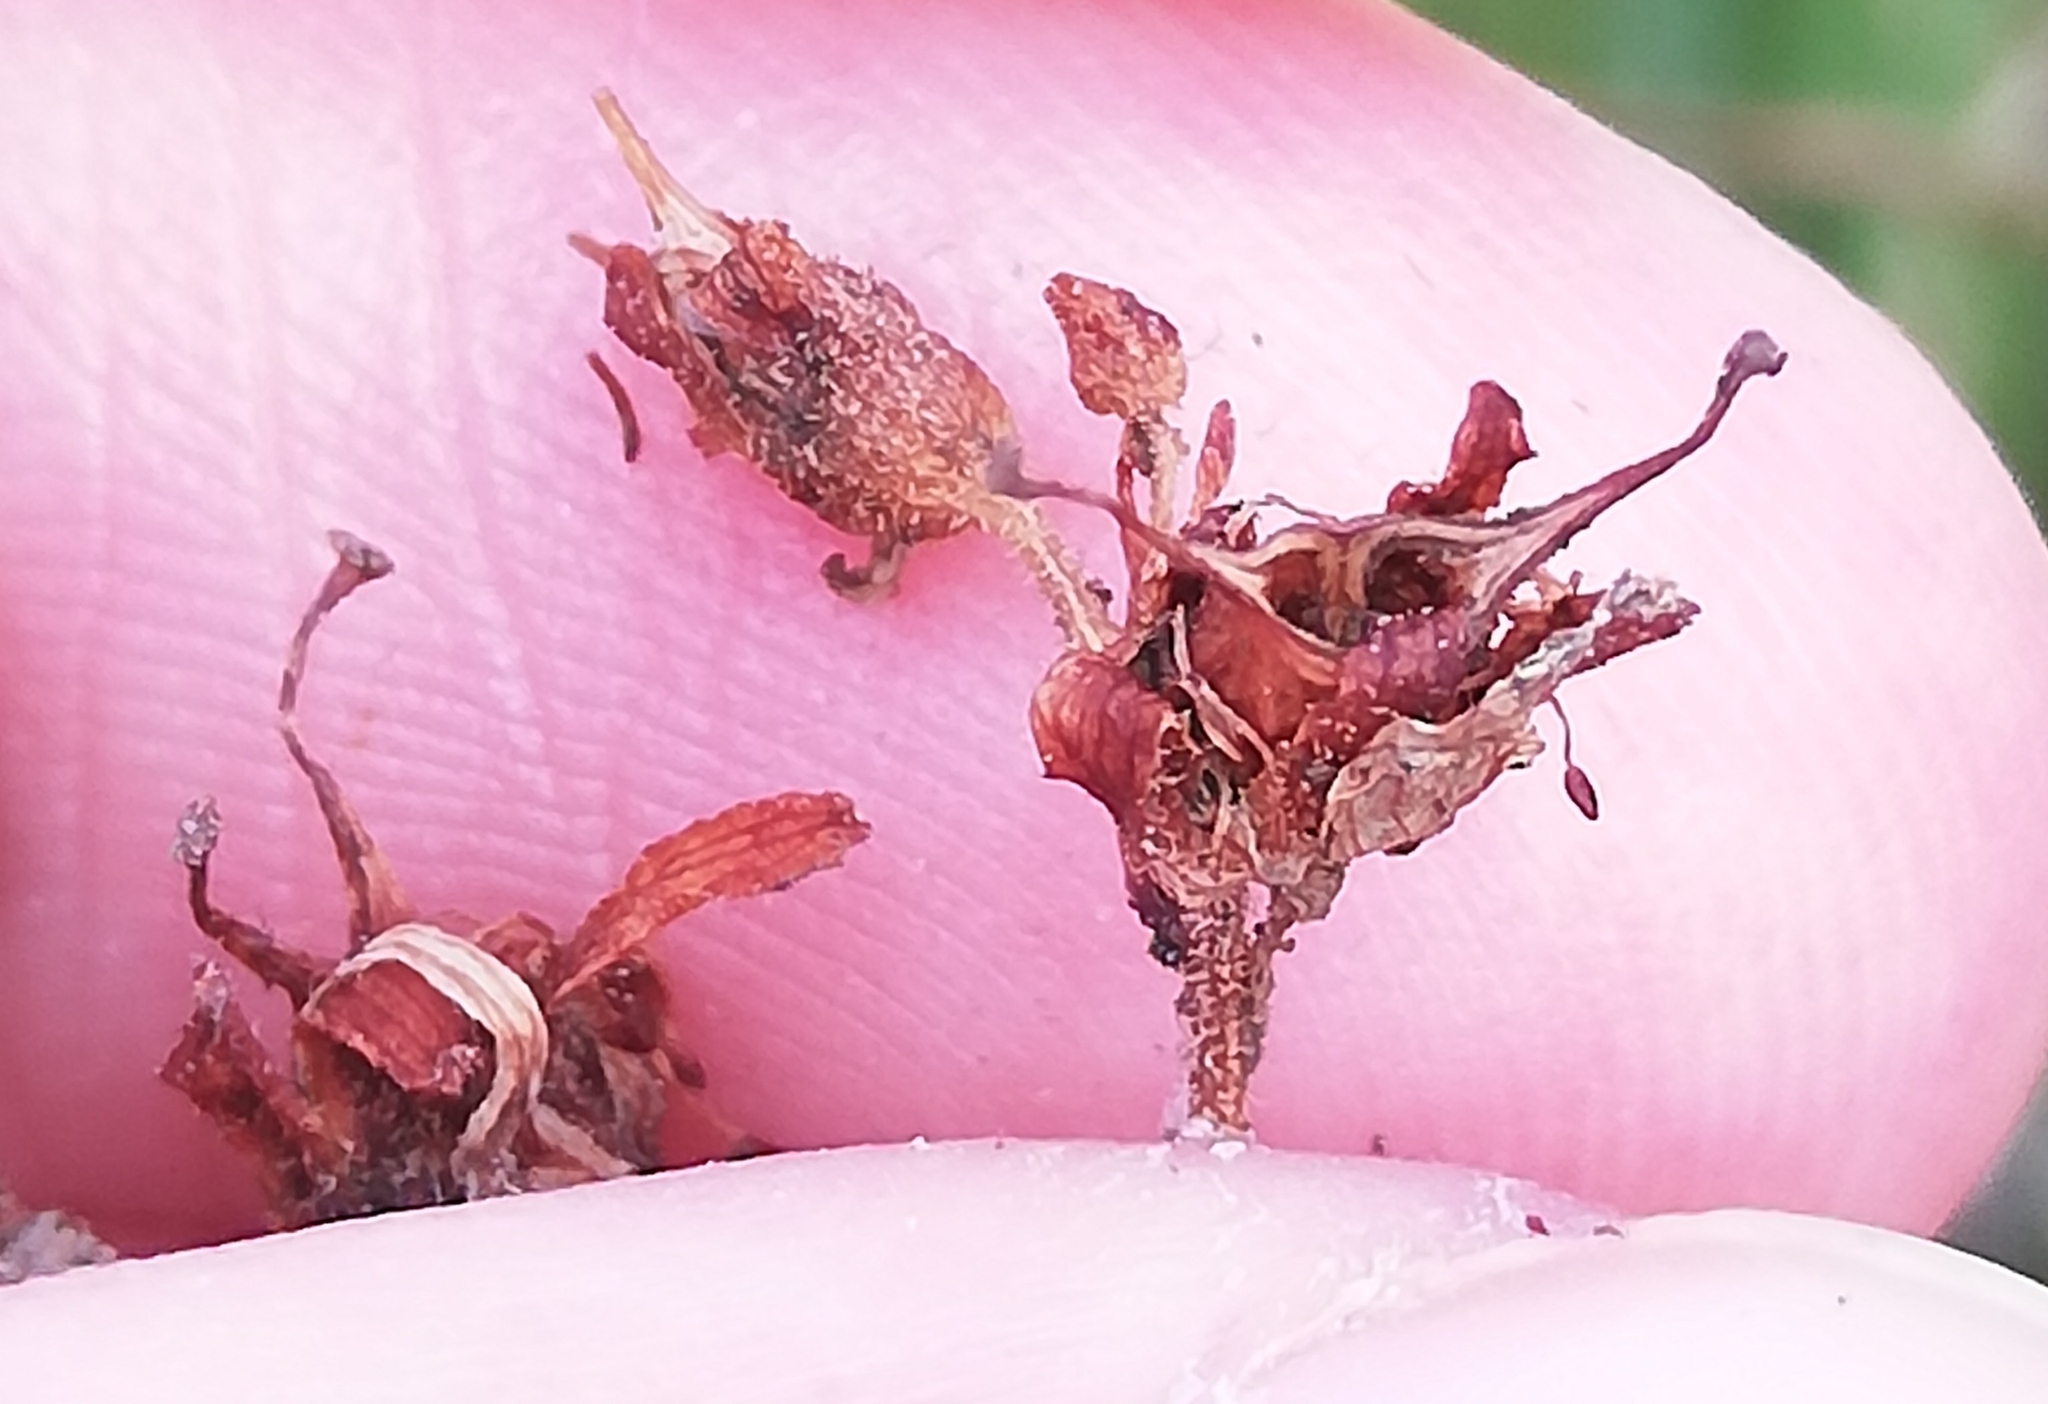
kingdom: Plantae
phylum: Tracheophyta
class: Magnoliopsida
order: Saxifragales
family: Saxifragaceae
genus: Saxifraga
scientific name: Saxifraga granulata
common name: Meadow saxifrage
